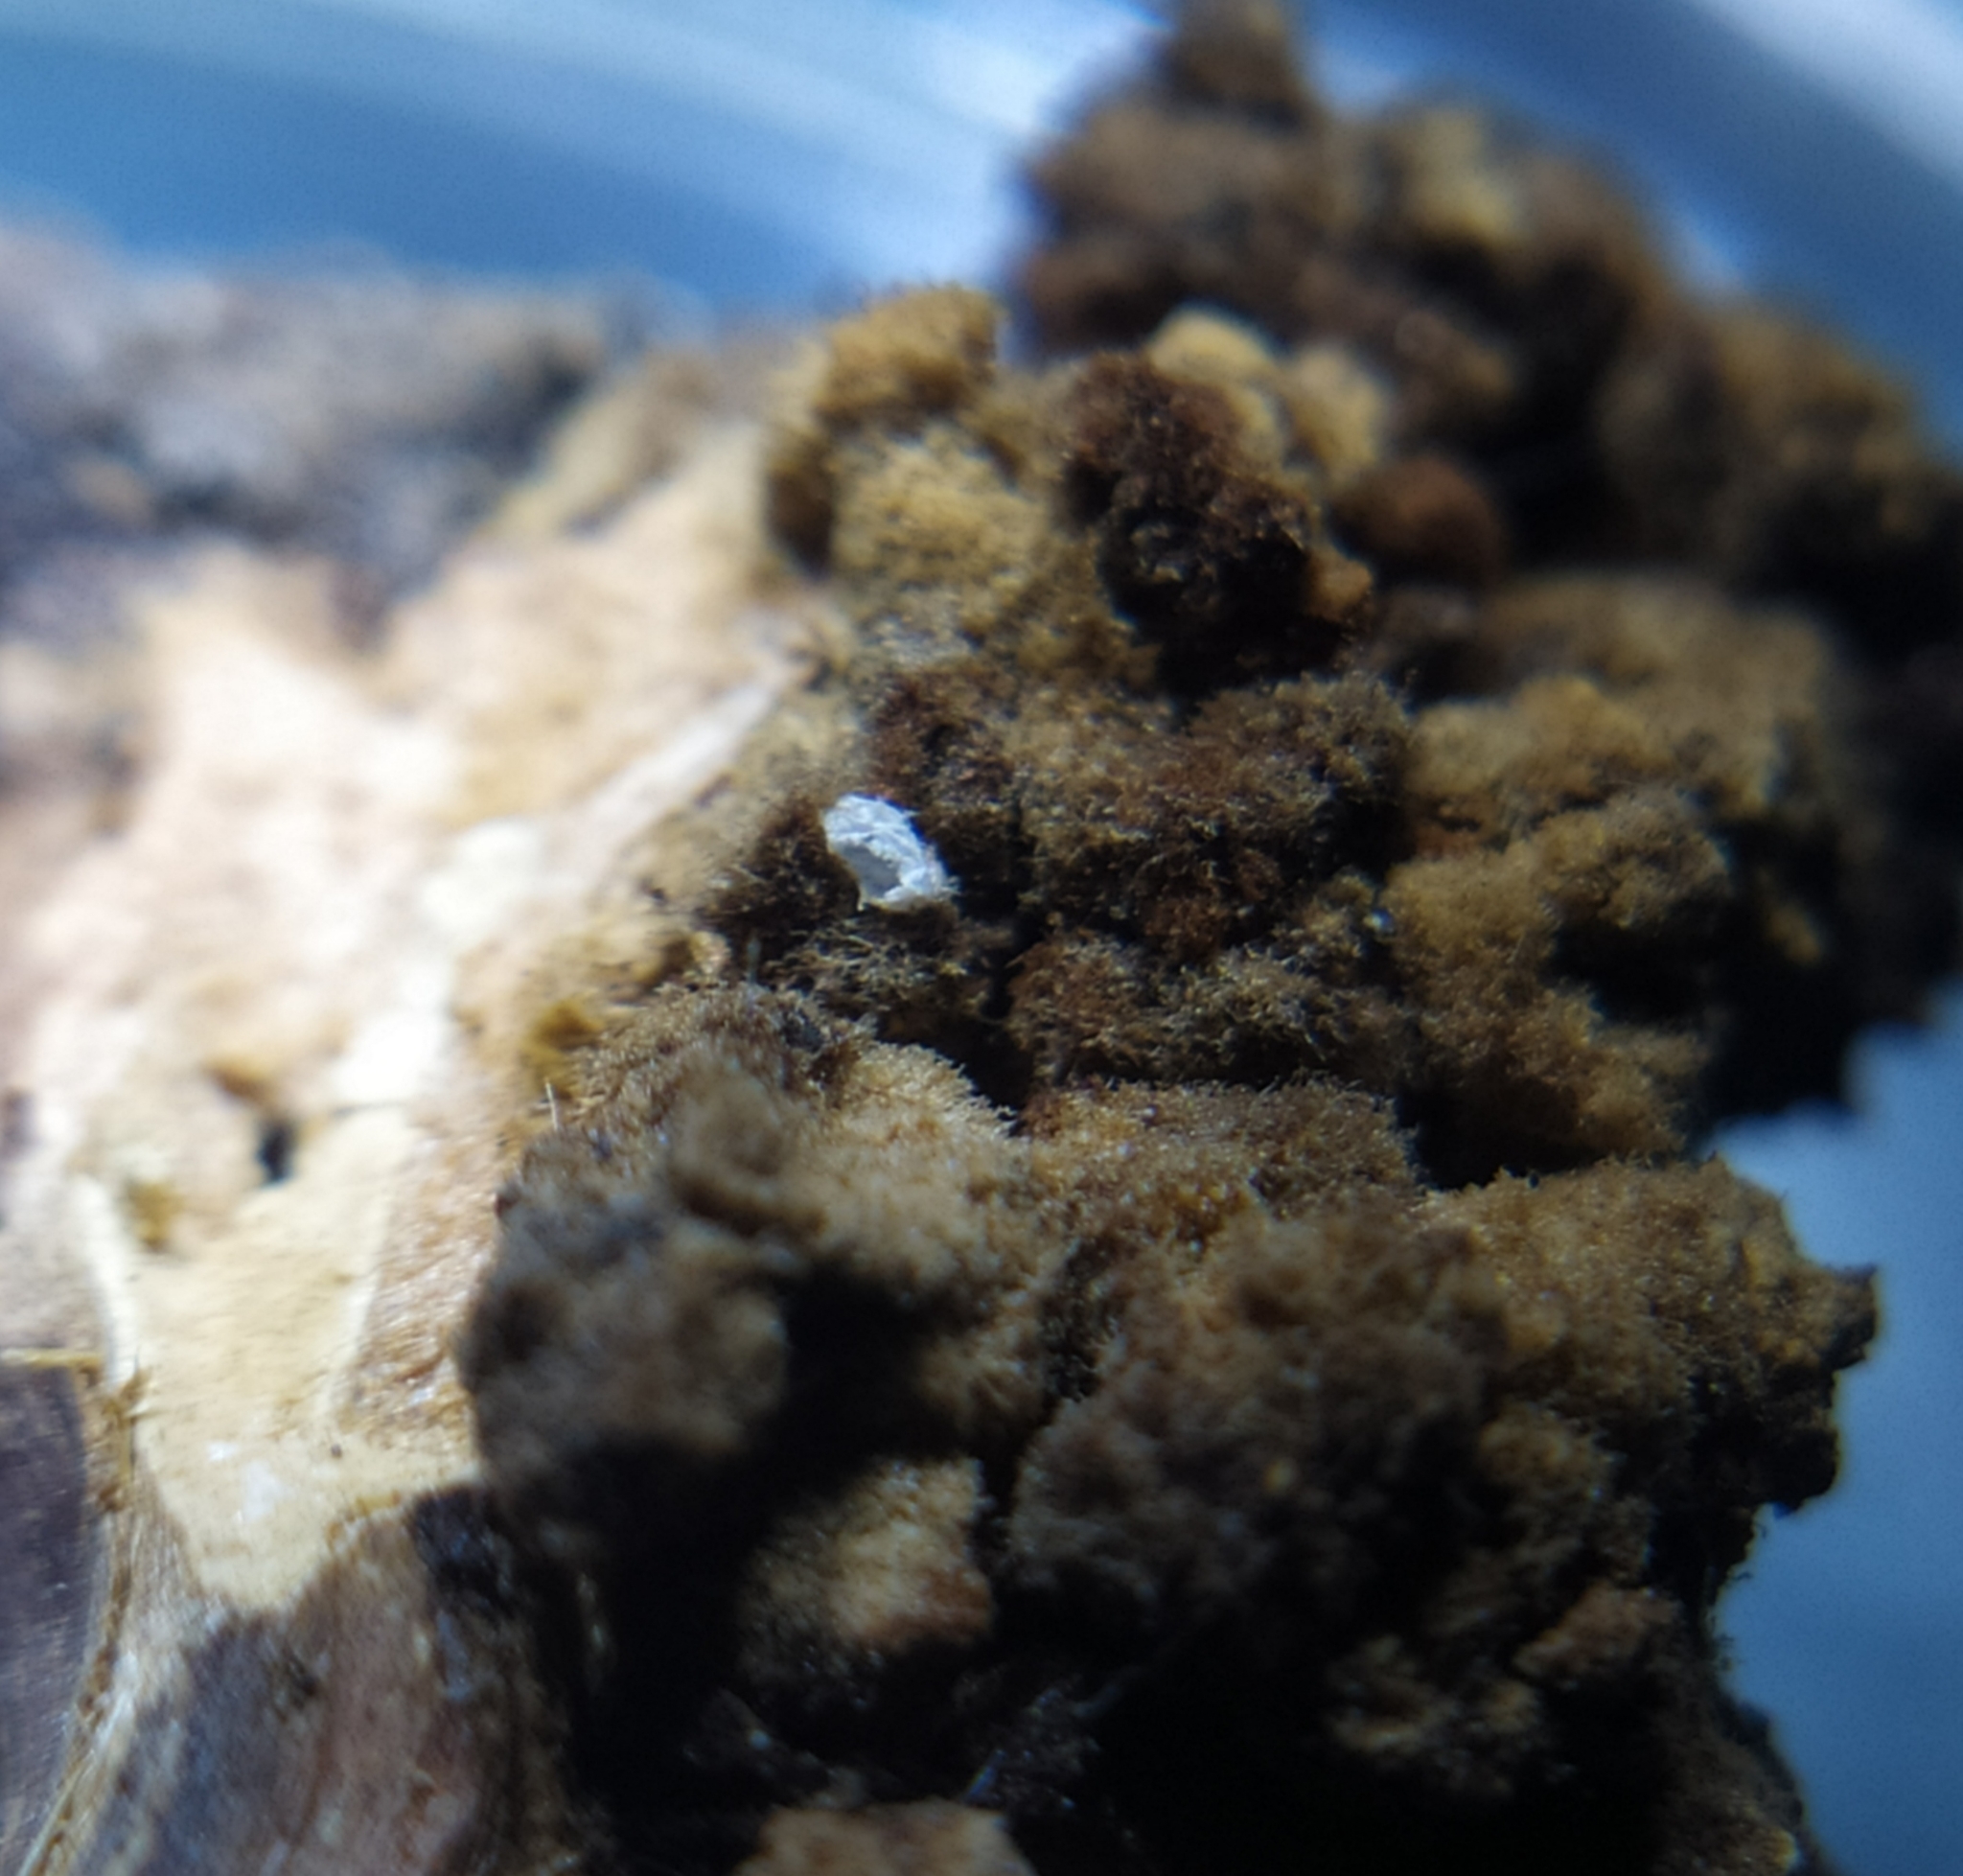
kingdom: Animalia
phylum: Arthropoda
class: Insecta
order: Diptera
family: Cecidomyiidae
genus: Arthrocnodax
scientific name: Arthrocnodax fraxinellus
